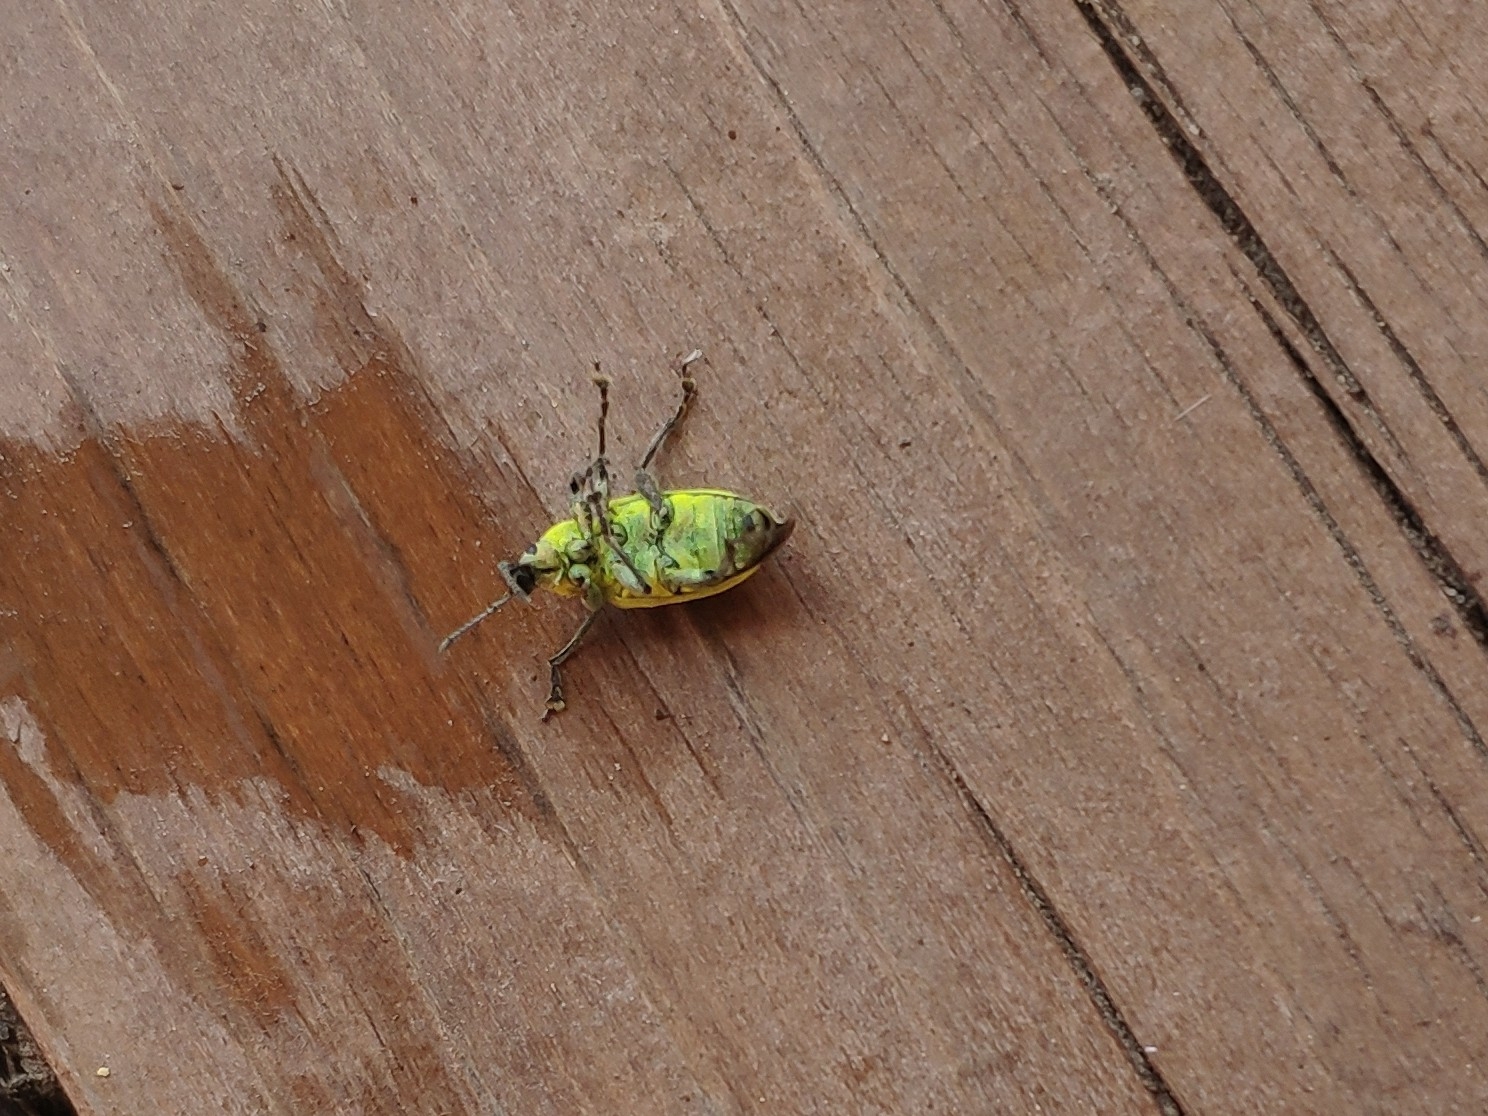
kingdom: Animalia
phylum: Arthropoda
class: Insecta
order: Coleoptera
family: Curculionidae
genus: Chlorophanus
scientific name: Chlorophanus viridis
